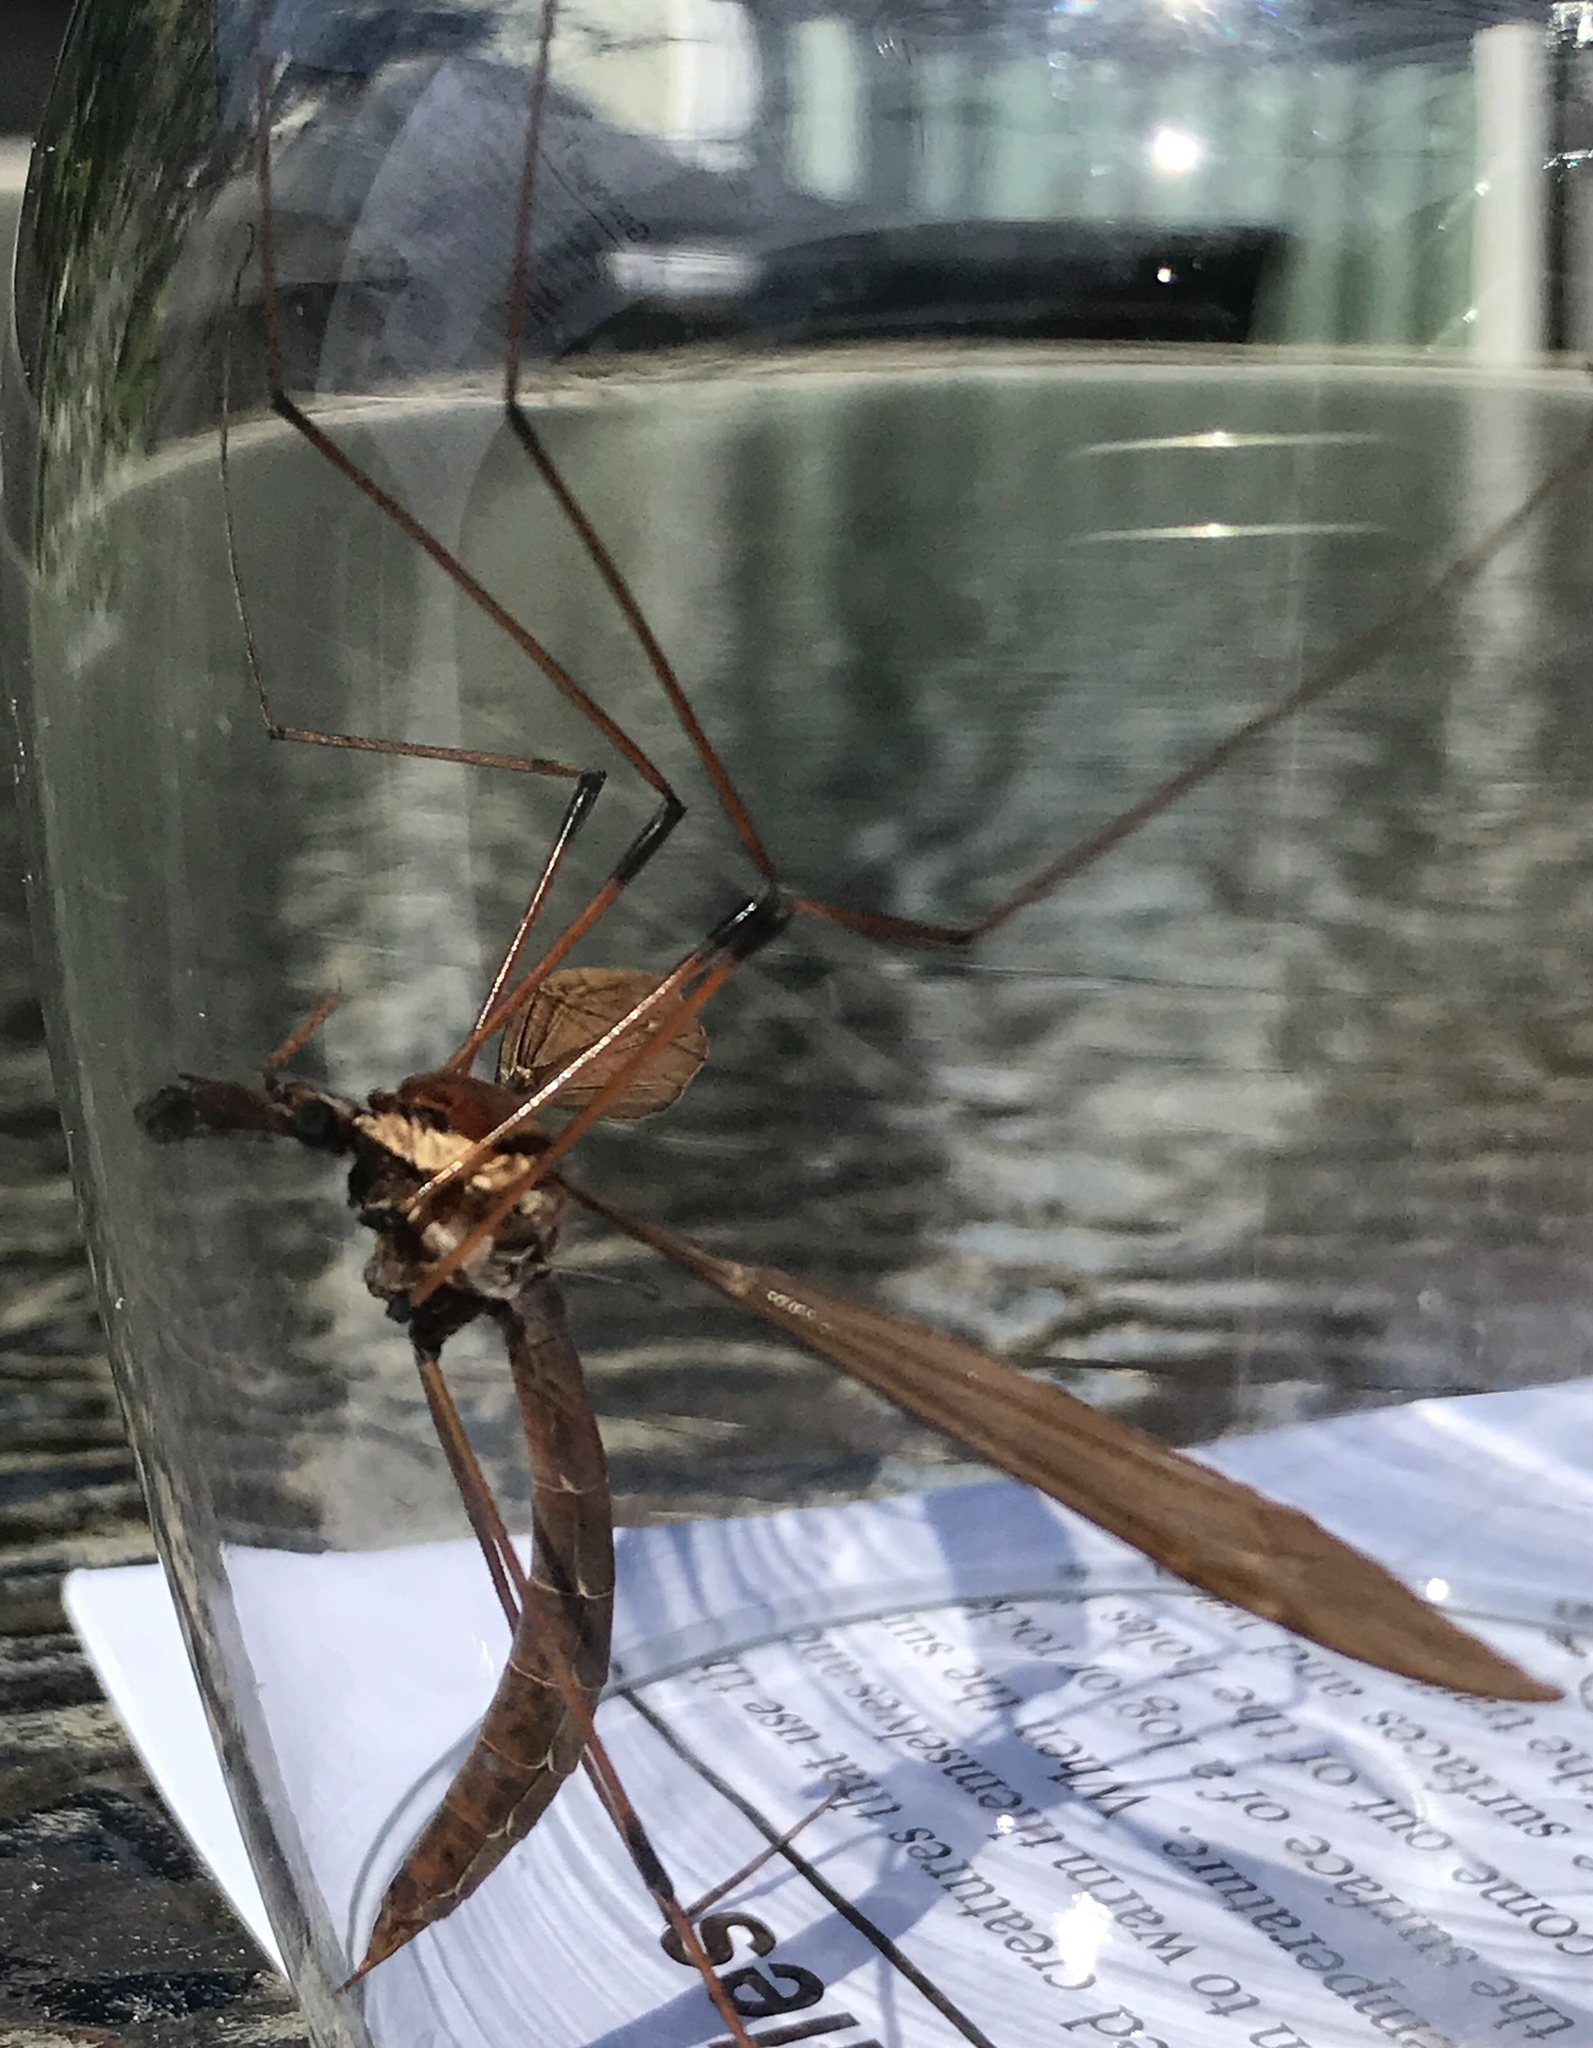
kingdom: Animalia
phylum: Arthropoda
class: Insecta
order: Diptera
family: Tipulidae
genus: Holorusia
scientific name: Holorusia hespera
